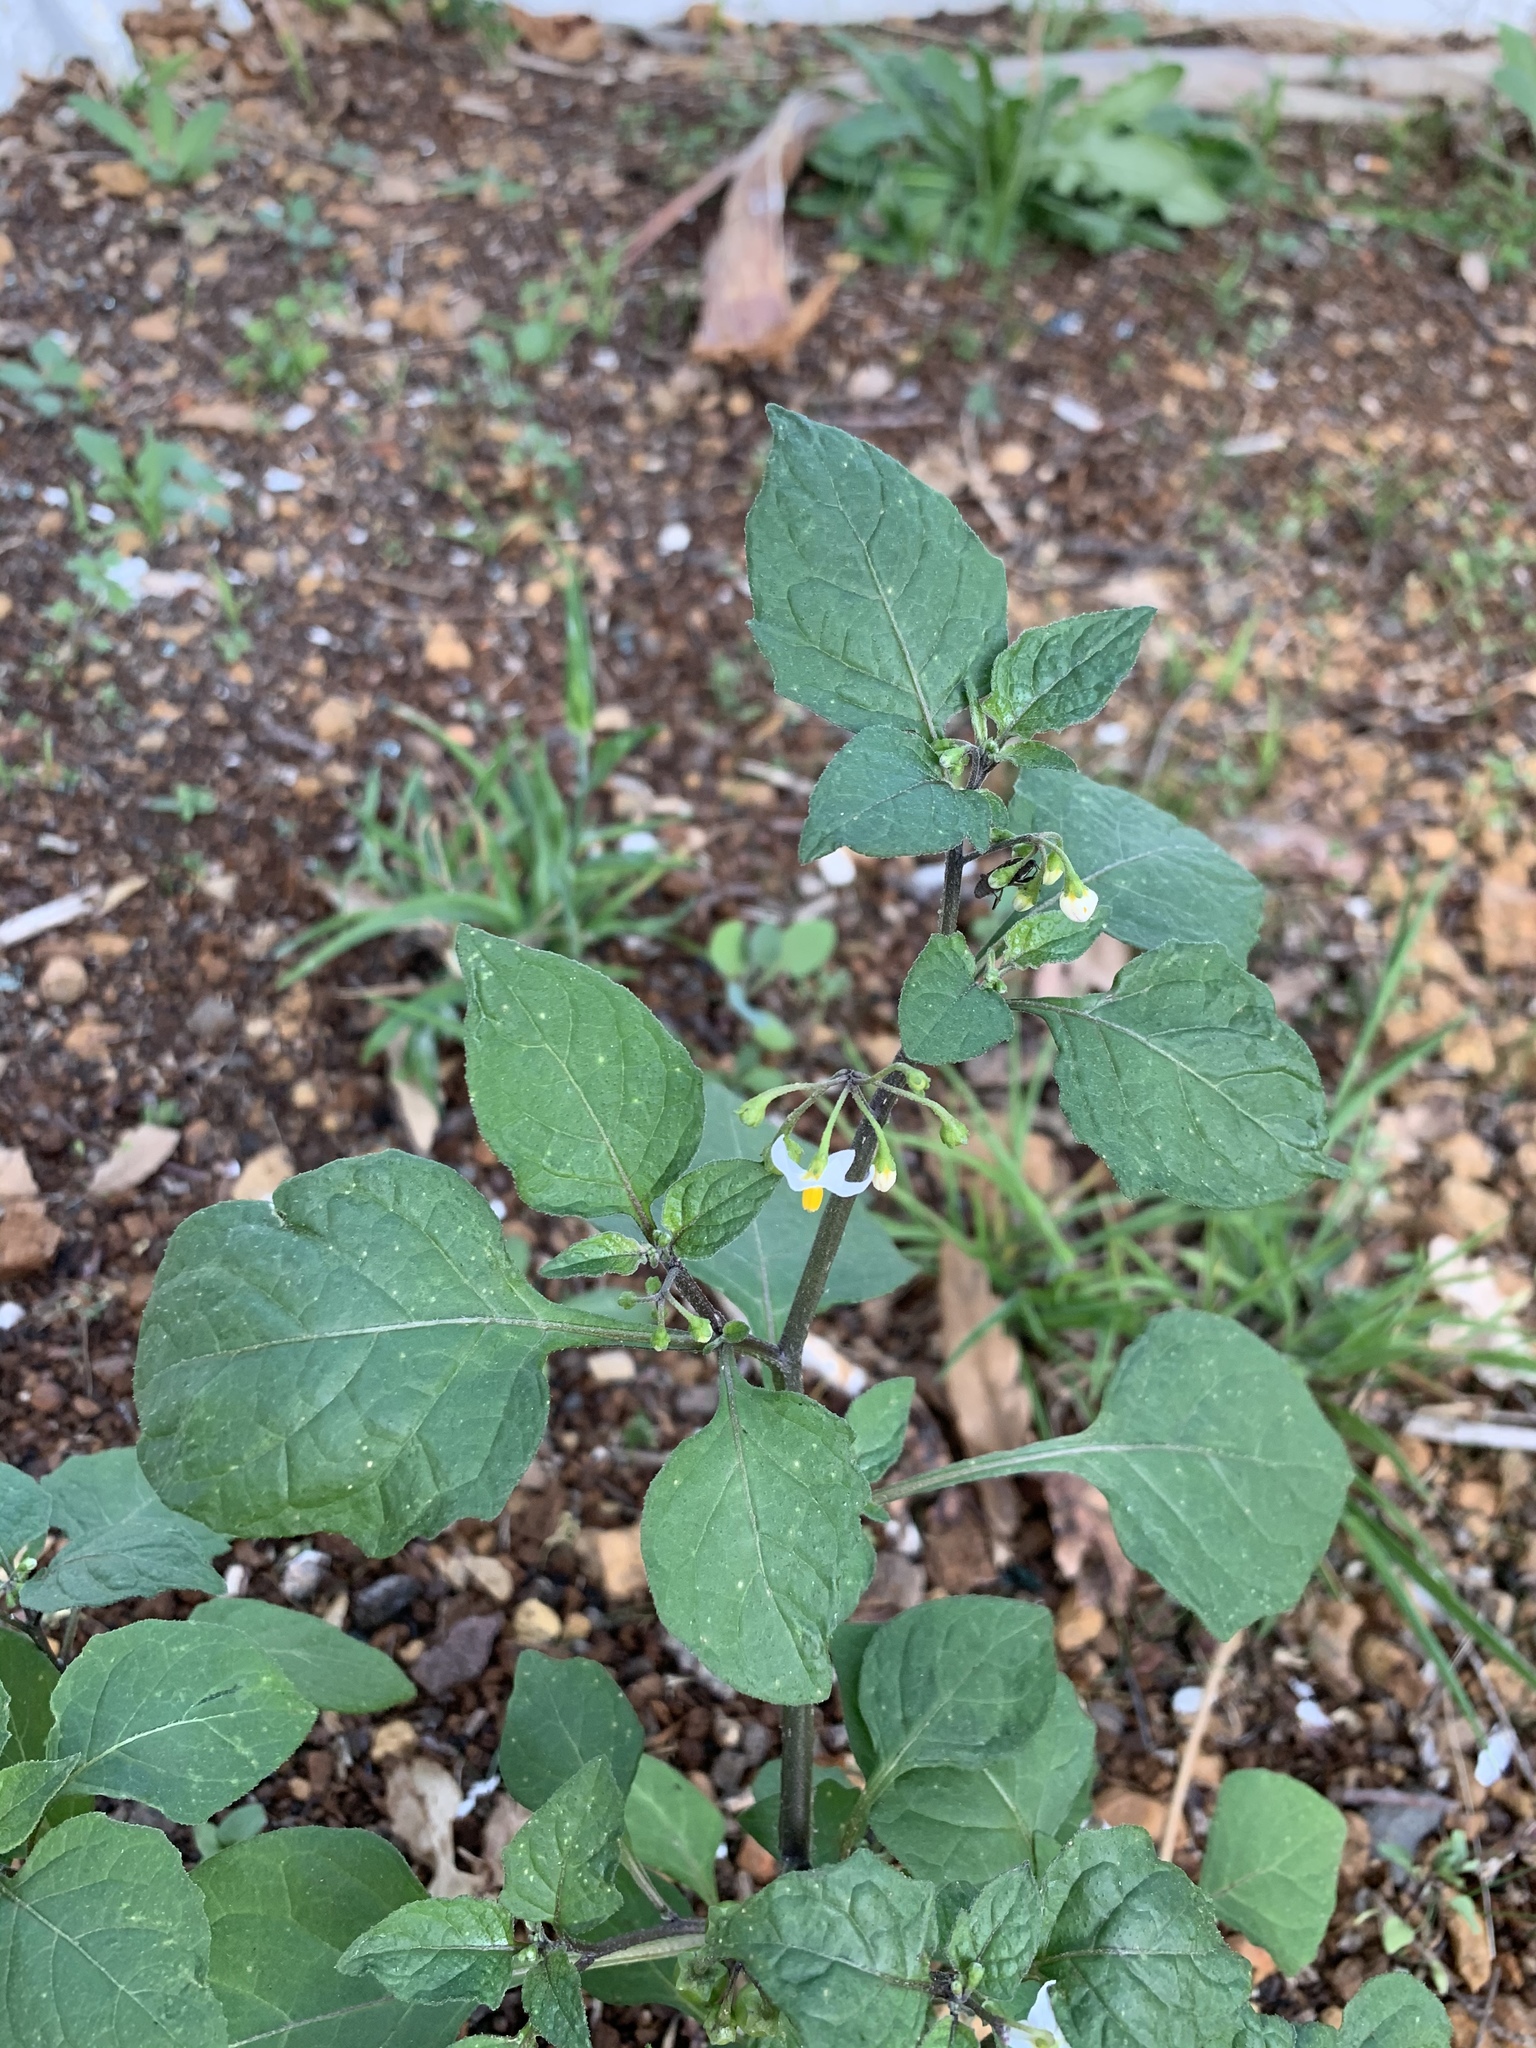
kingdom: Plantae
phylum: Tracheophyta
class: Magnoliopsida
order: Solanales
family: Solanaceae
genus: Solanum
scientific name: Solanum nigrum
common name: Black nightshade
